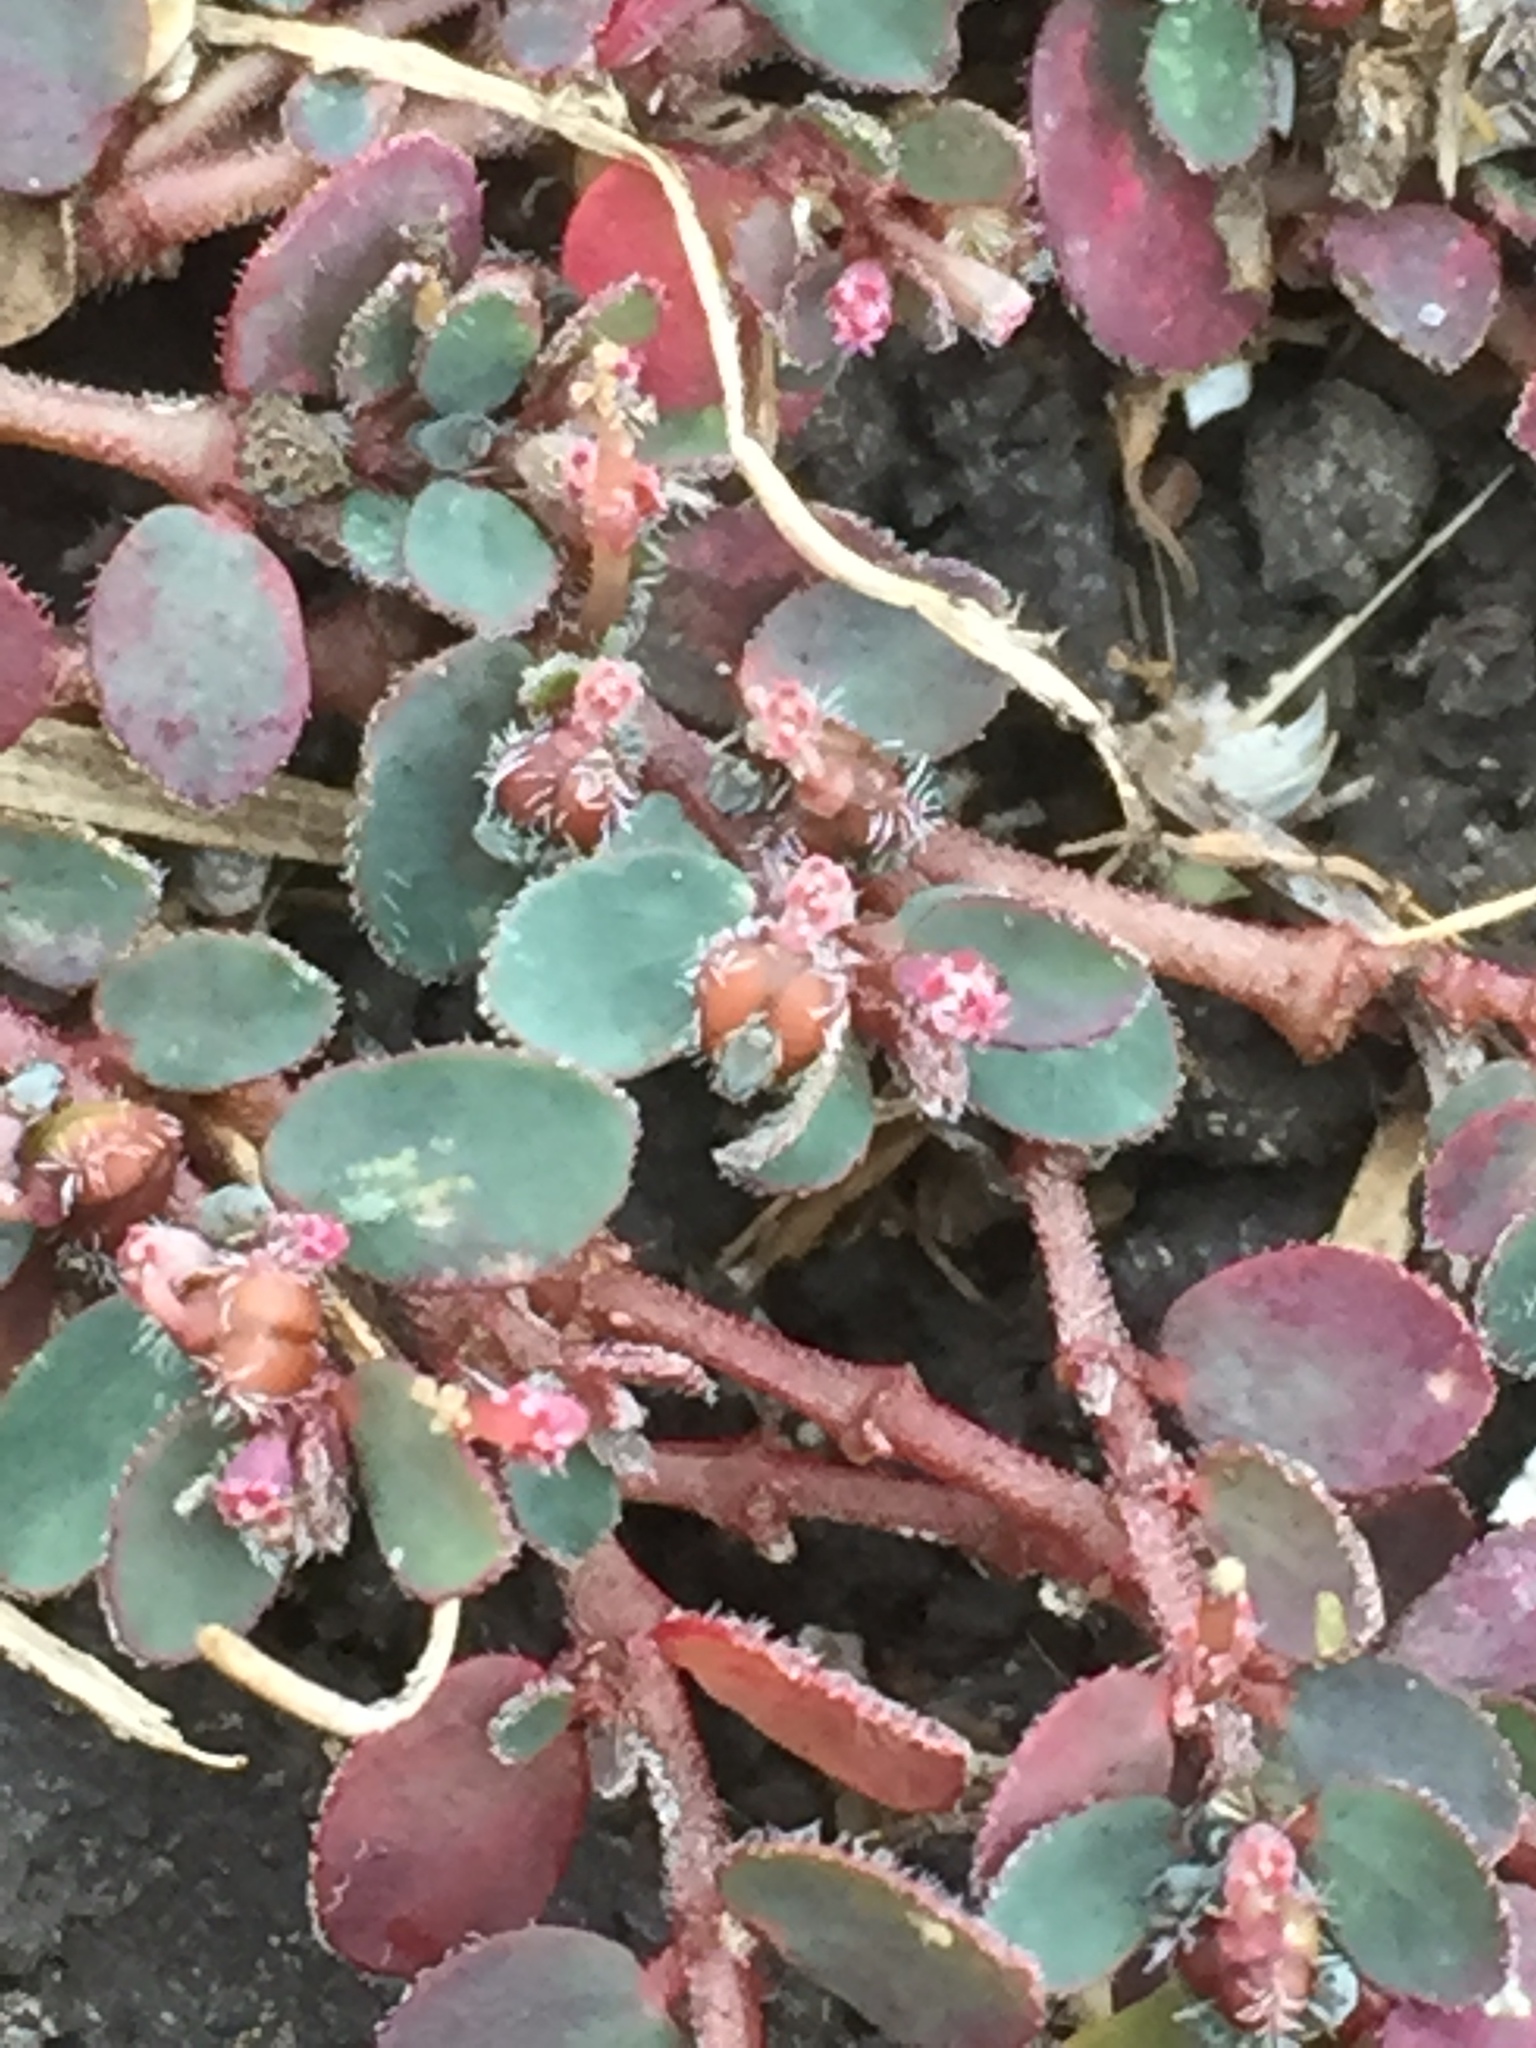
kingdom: Plantae
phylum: Tracheophyta
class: Magnoliopsida
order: Malpighiales
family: Euphorbiaceae
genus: Euphorbia
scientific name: Euphorbia prostrata
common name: Prostrate sandmat
